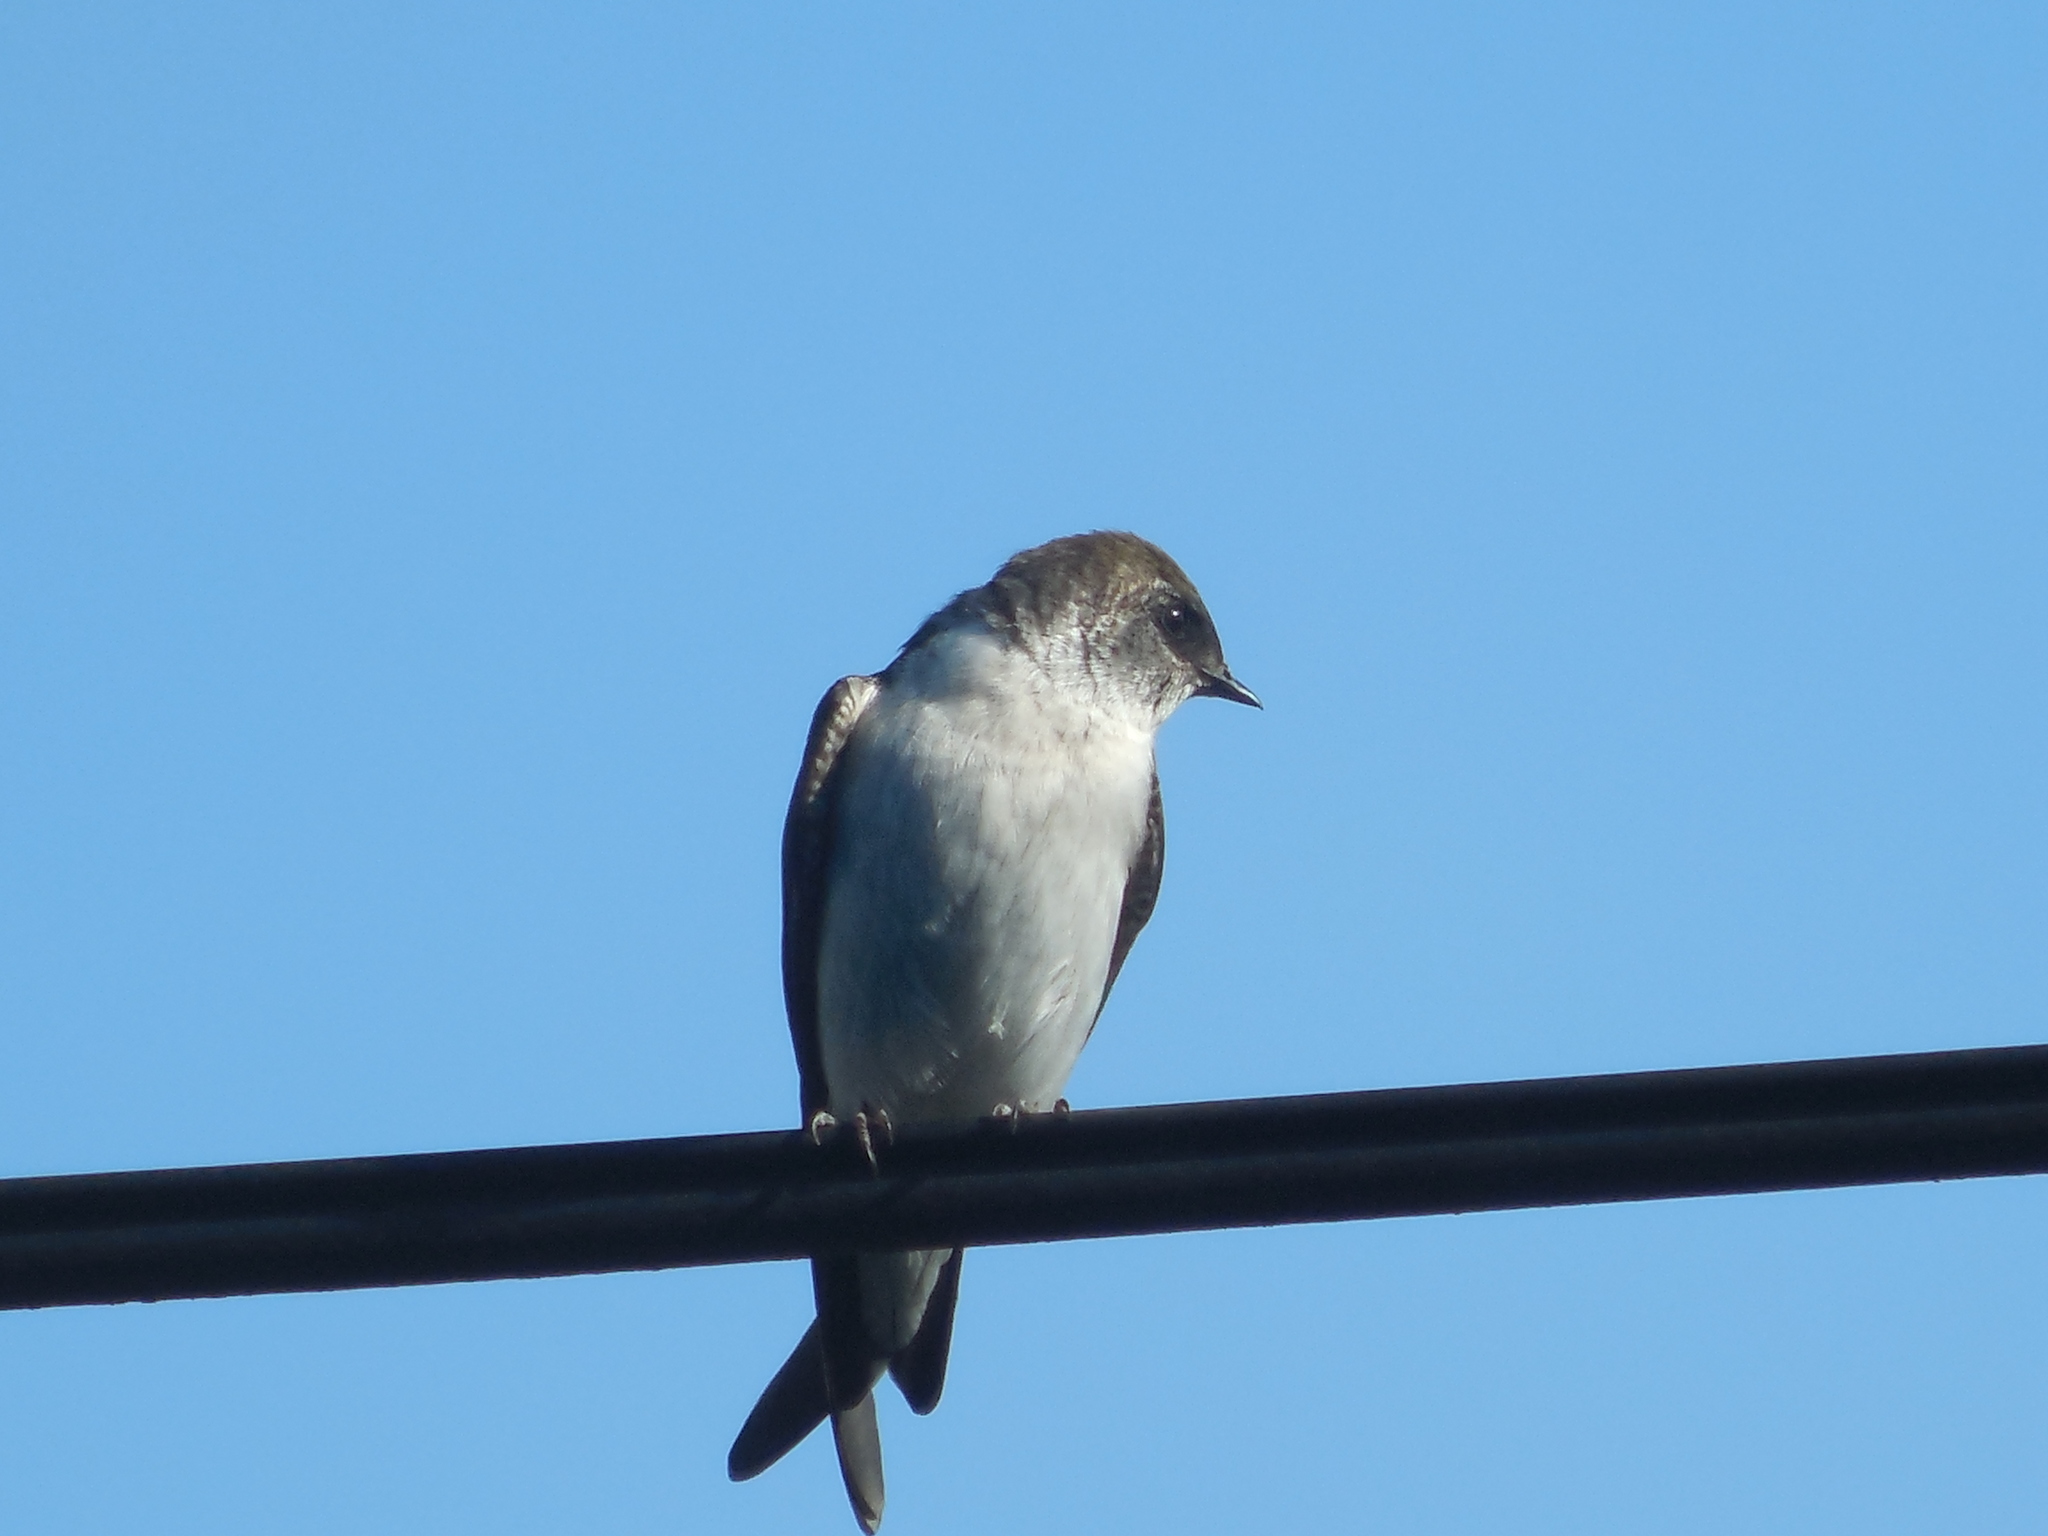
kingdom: Animalia
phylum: Chordata
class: Aves
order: Passeriformes
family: Hirundinidae
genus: Tachycineta
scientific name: Tachycineta thalassina
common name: Violet-green swallow
